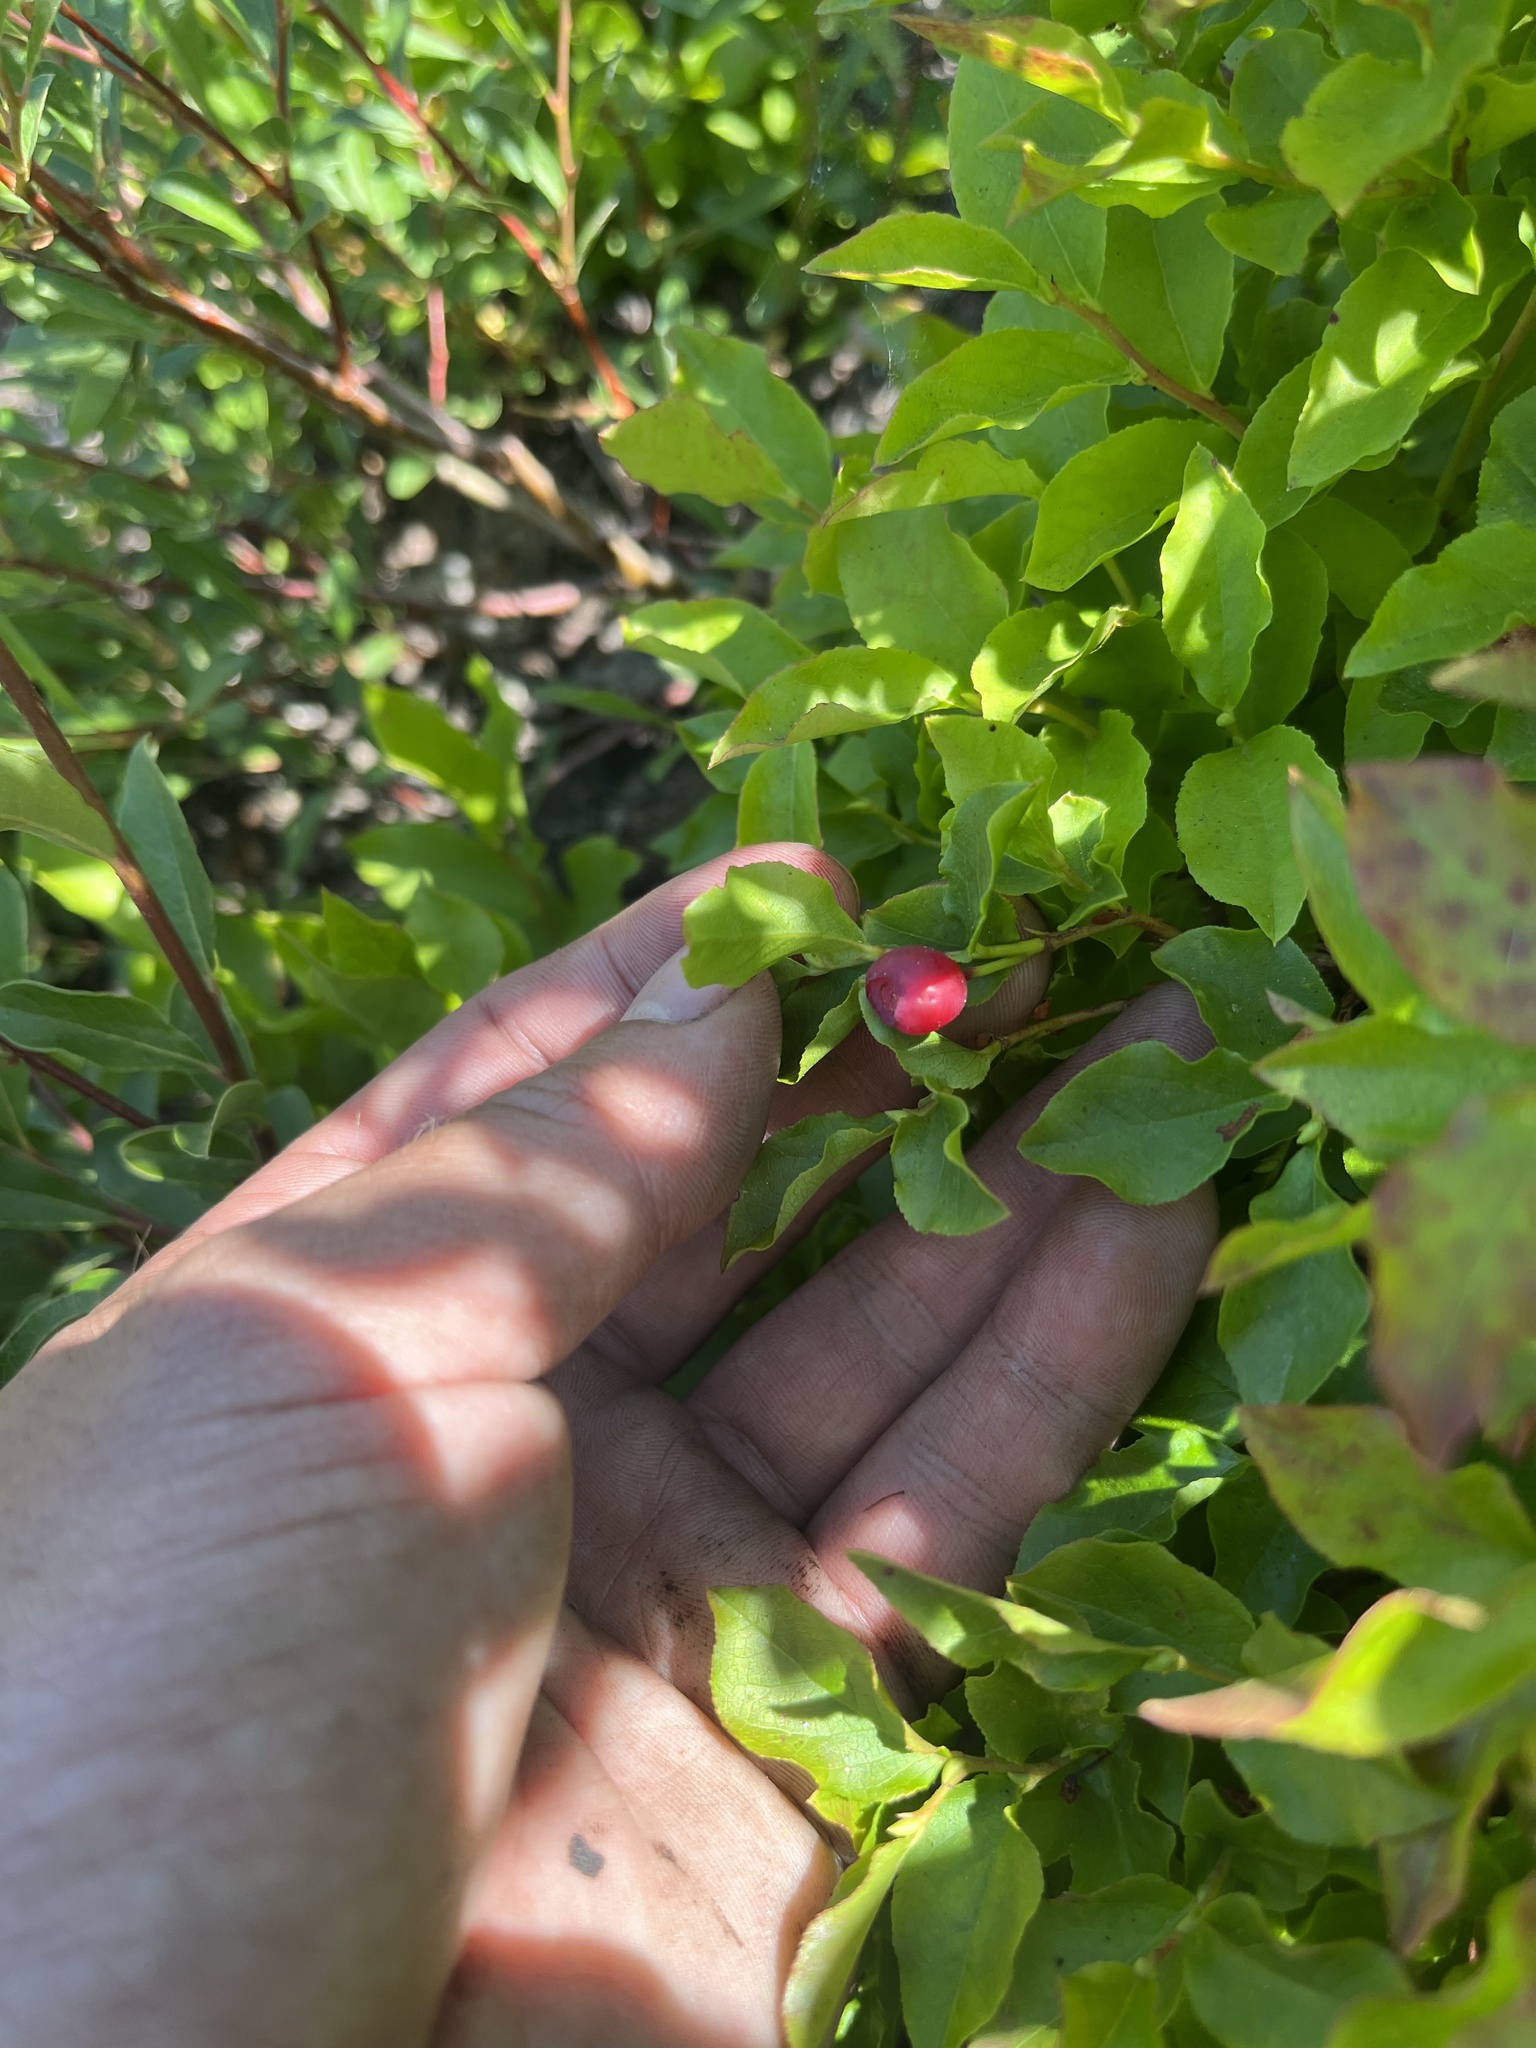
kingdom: Plantae
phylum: Tracheophyta
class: Magnoliopsida
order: Ericales
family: Ericaceae
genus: Vaccinium
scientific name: Vaccinium membranaceum
